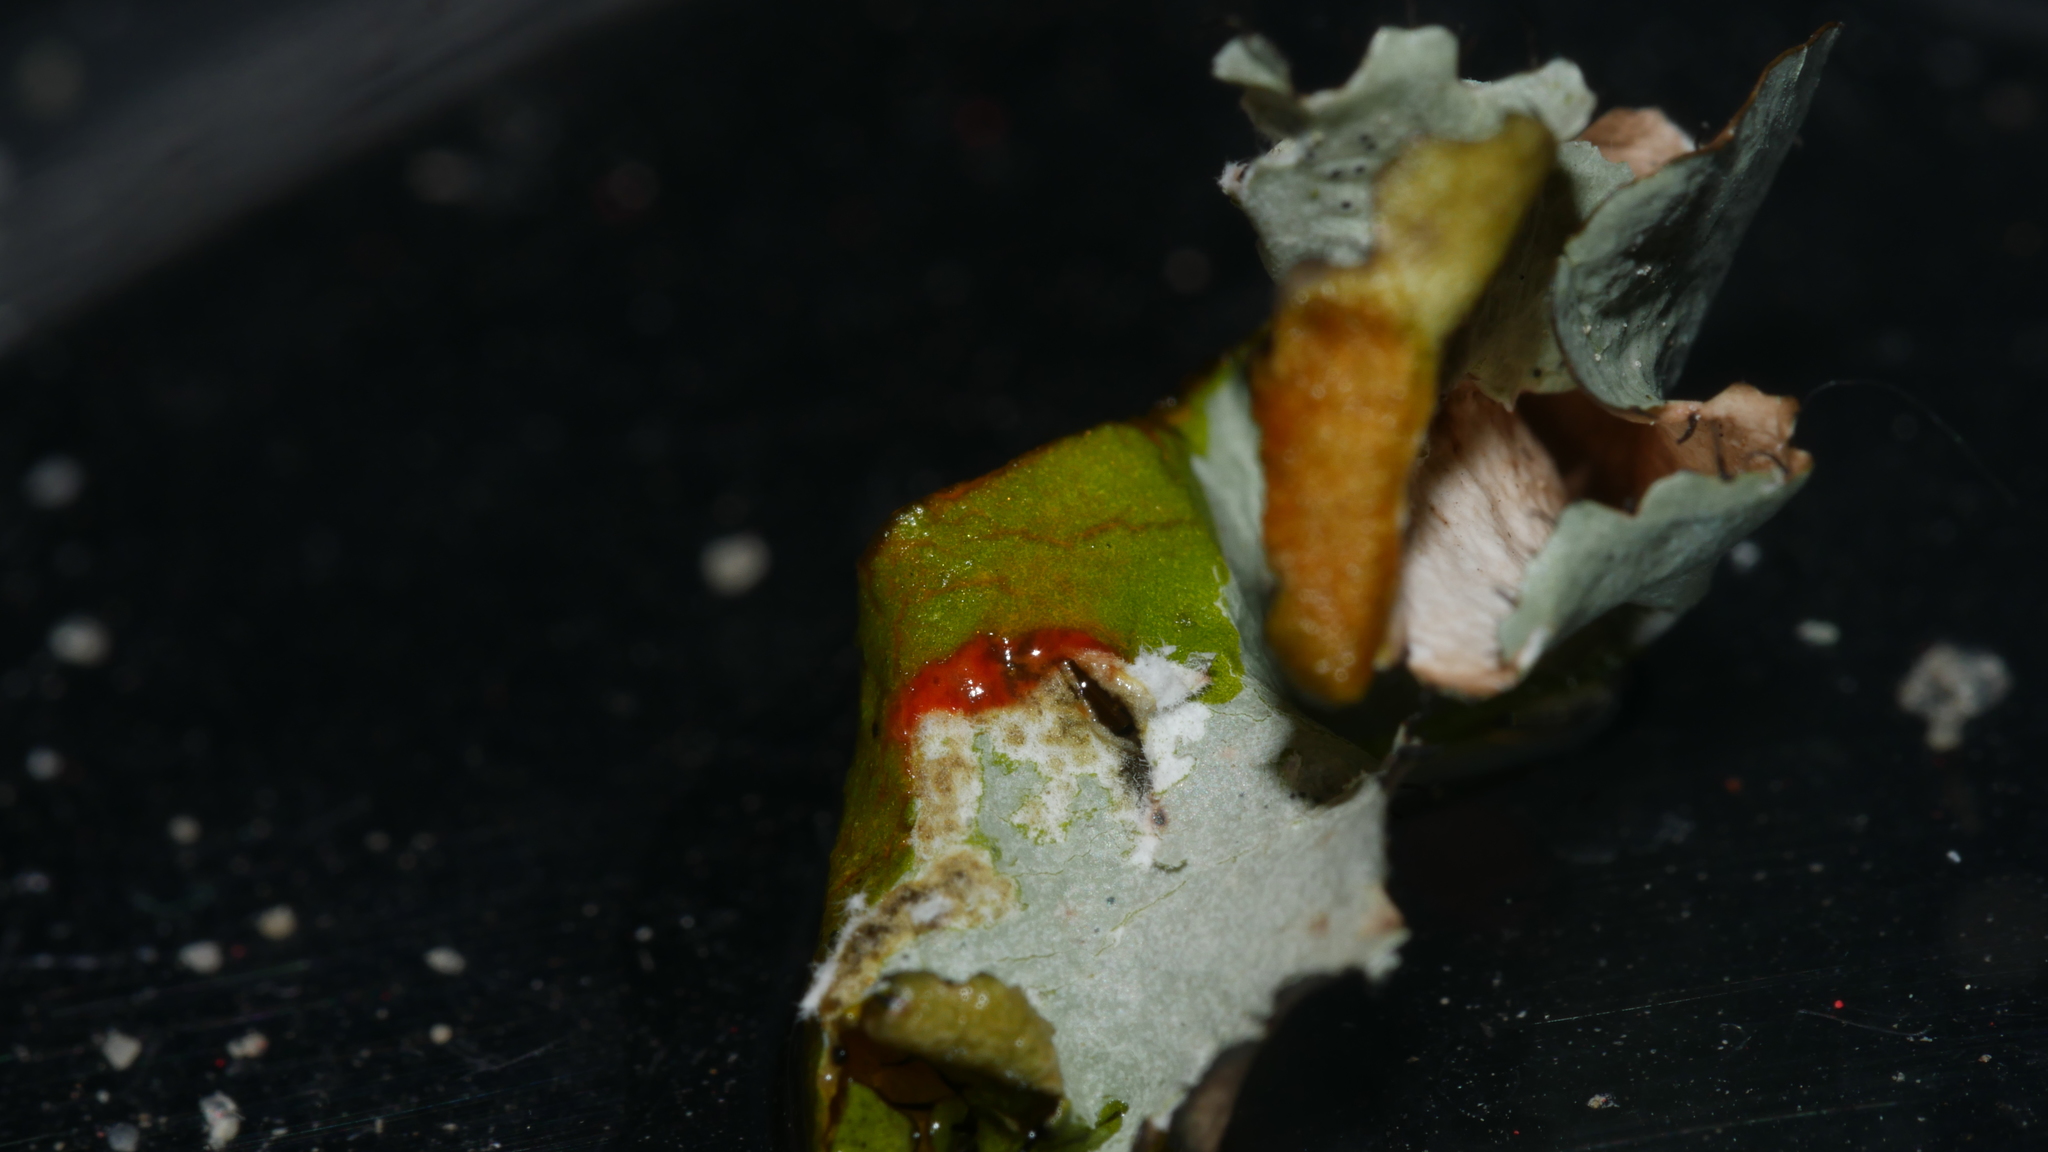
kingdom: Fungi
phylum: Ascomycota
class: Lecanoromycetes
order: Lecanorales
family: Parmeliaceae
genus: Parmotrema
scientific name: Parmotrema perforatum
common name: Perforated ruffle lichen
